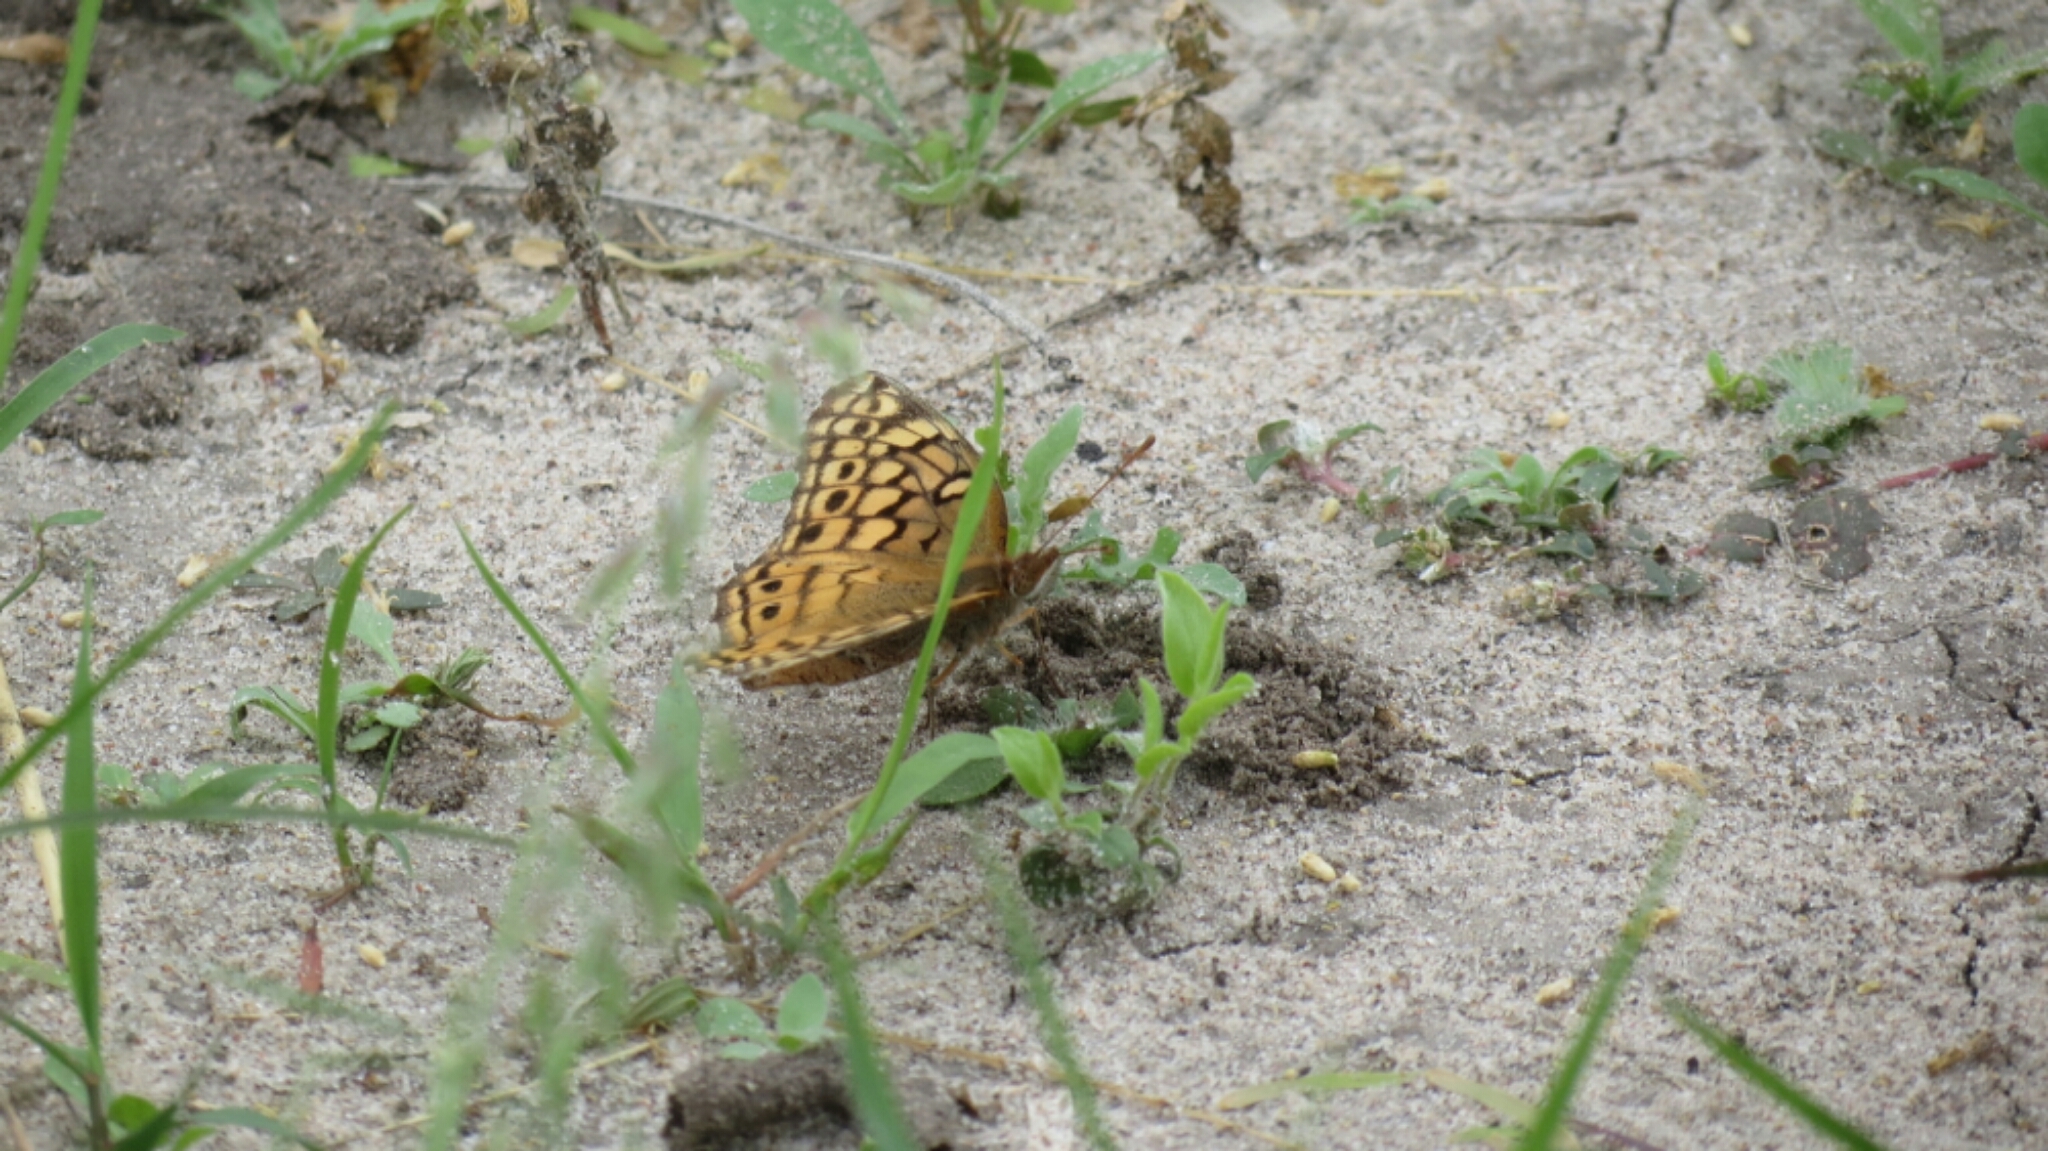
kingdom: Animalia
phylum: Arthropoda
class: Insecta
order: Lepidoptera
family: Nymphalidae
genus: Euptoieta
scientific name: Euptoieta claudia
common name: Variegated fritillary
